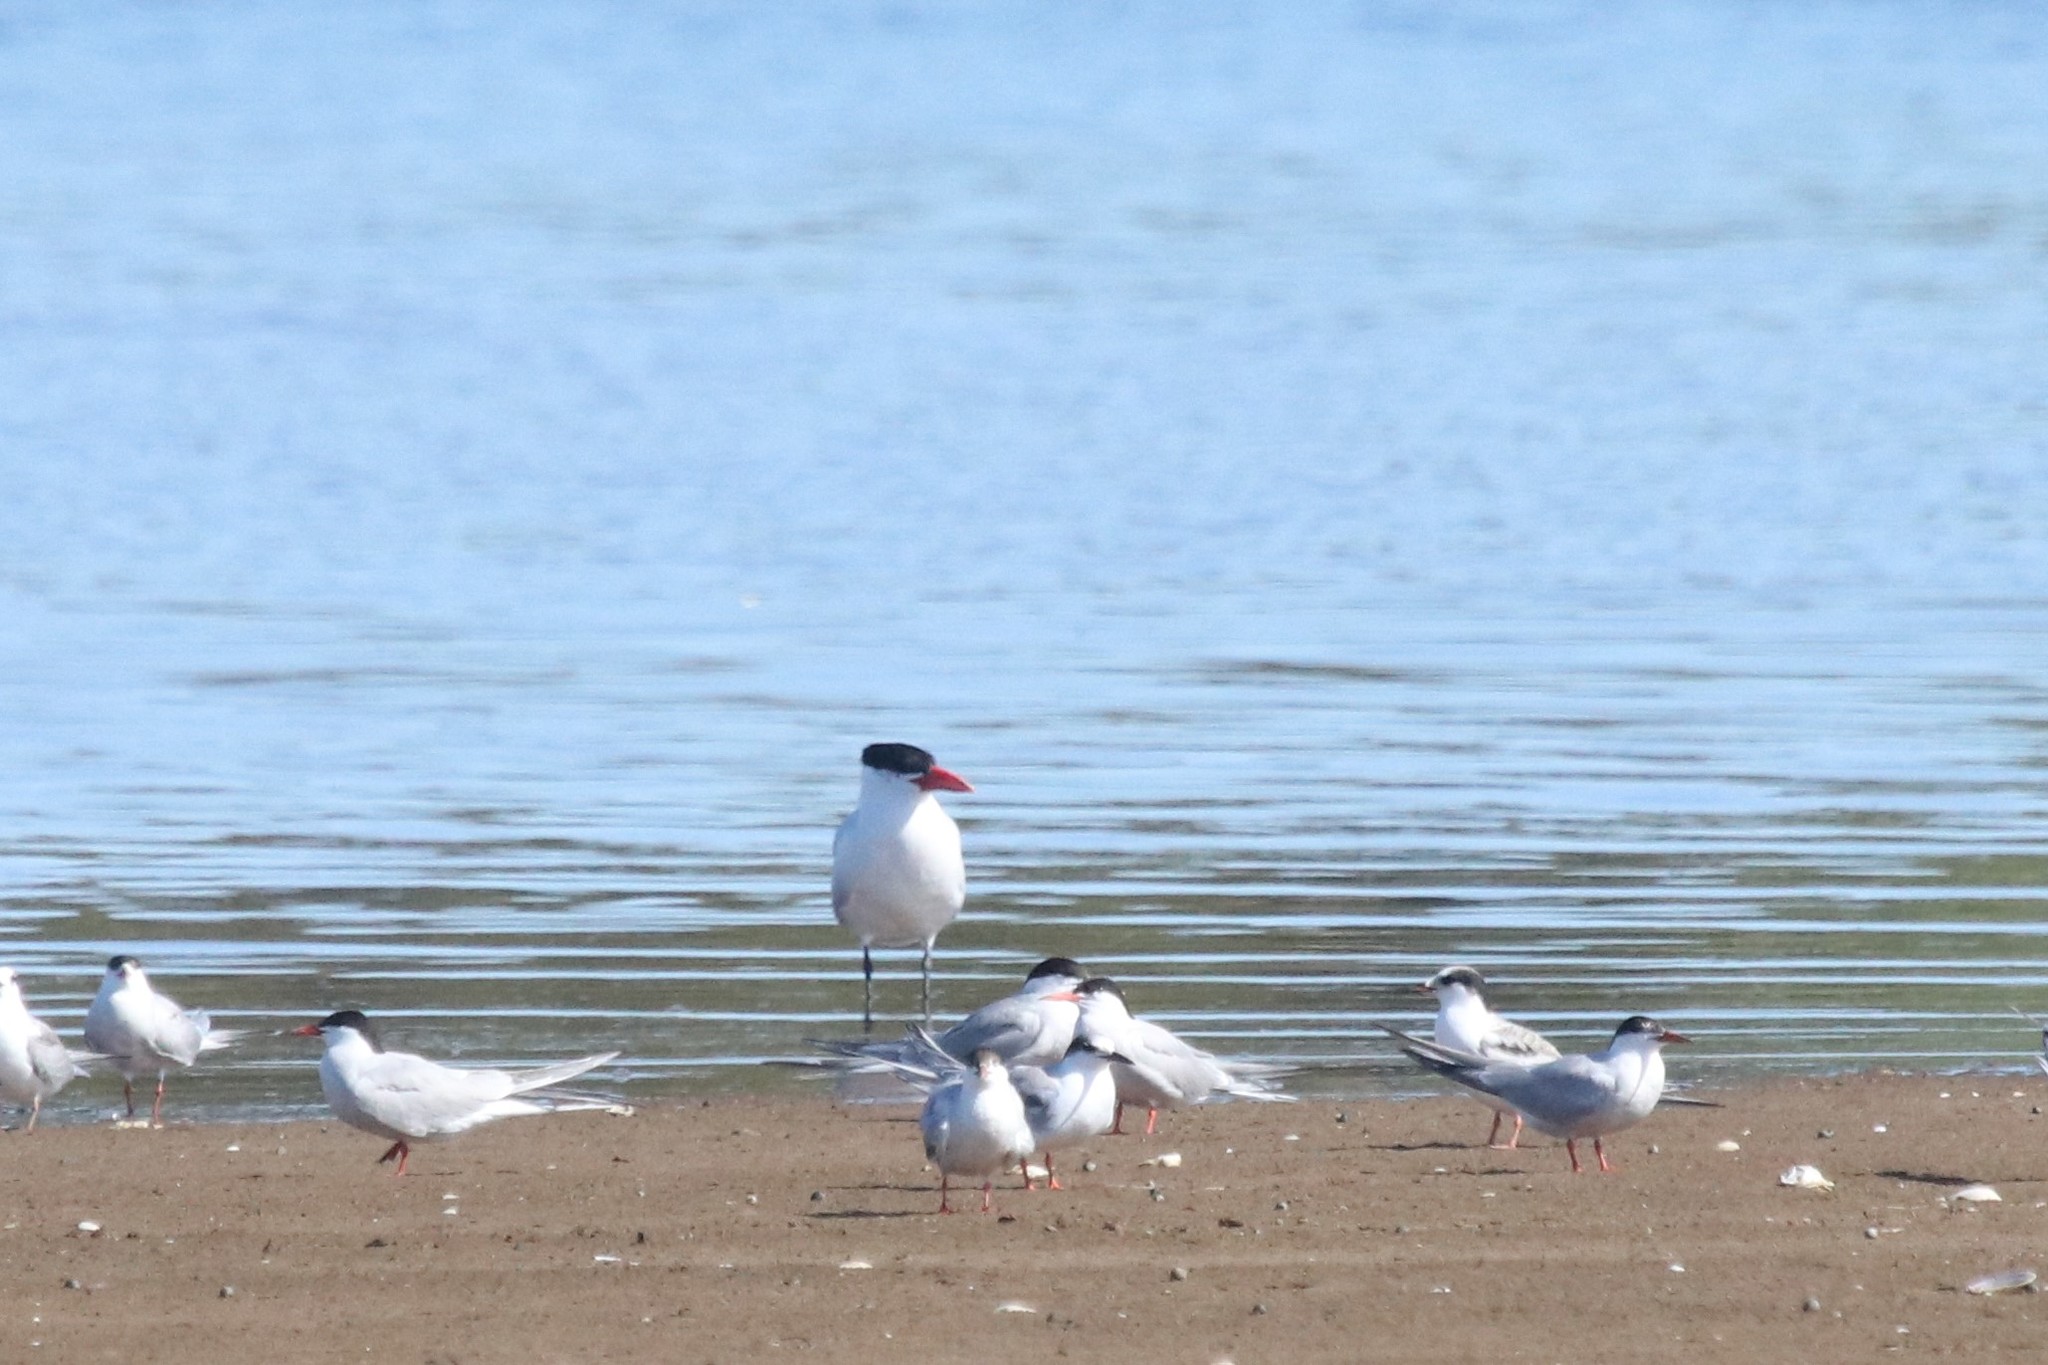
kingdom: Animalia
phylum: Chordata
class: Aves
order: Charadriiformes
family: Laridae
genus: Hydroprogne
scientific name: Hydroprogne caspia
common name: Caspian tern
